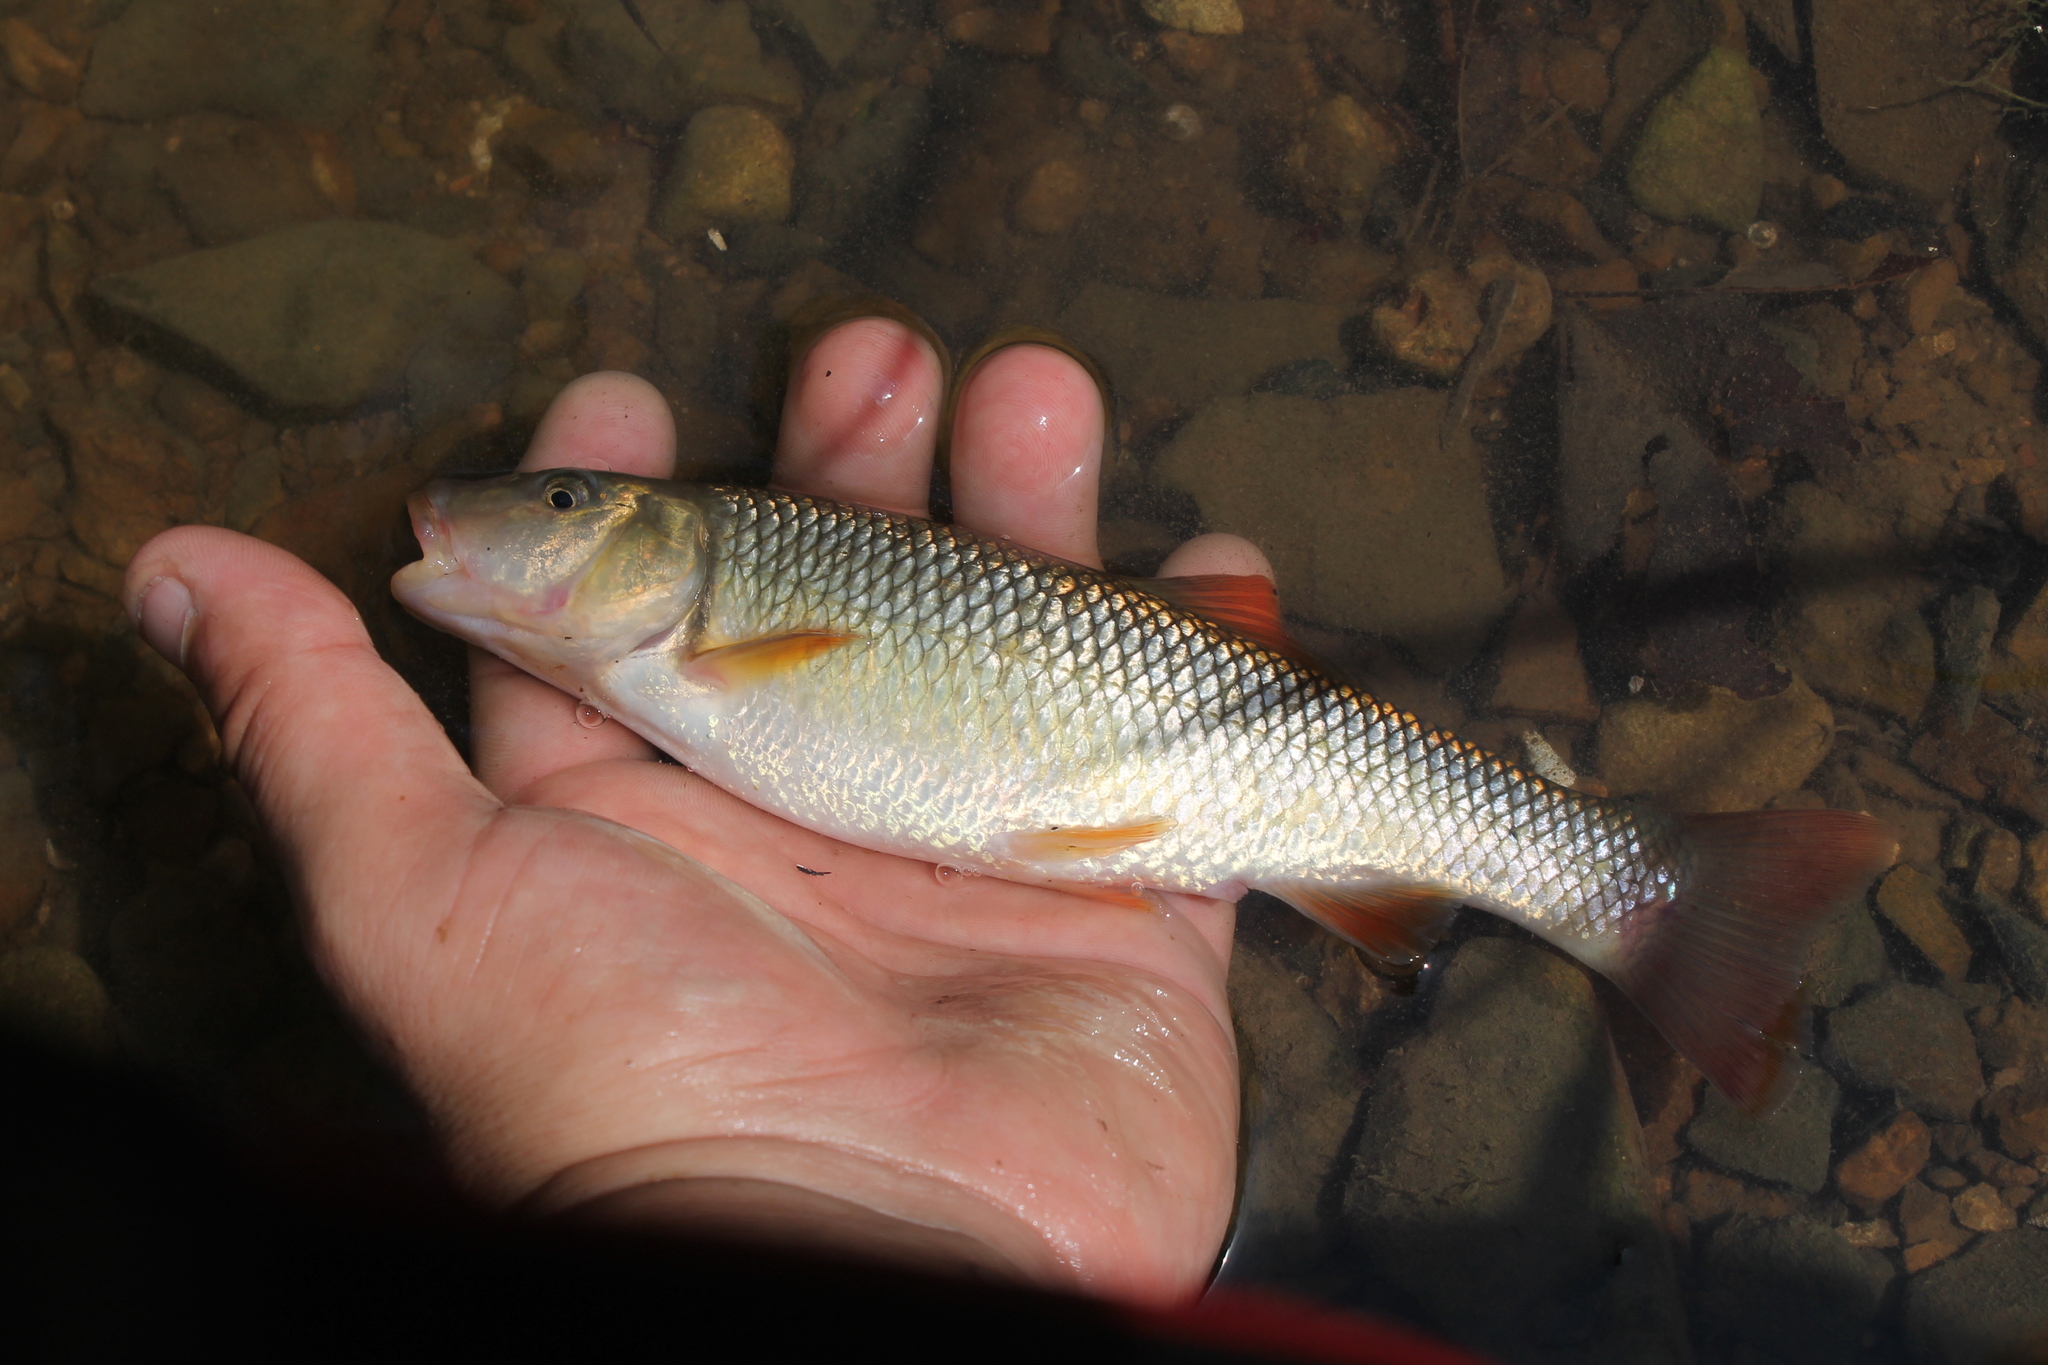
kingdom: Animalia
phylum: Chordata
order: Cypriniformes
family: Cyprinidae
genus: Nocomis
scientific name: Nocomis effusus
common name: Redtail chub
